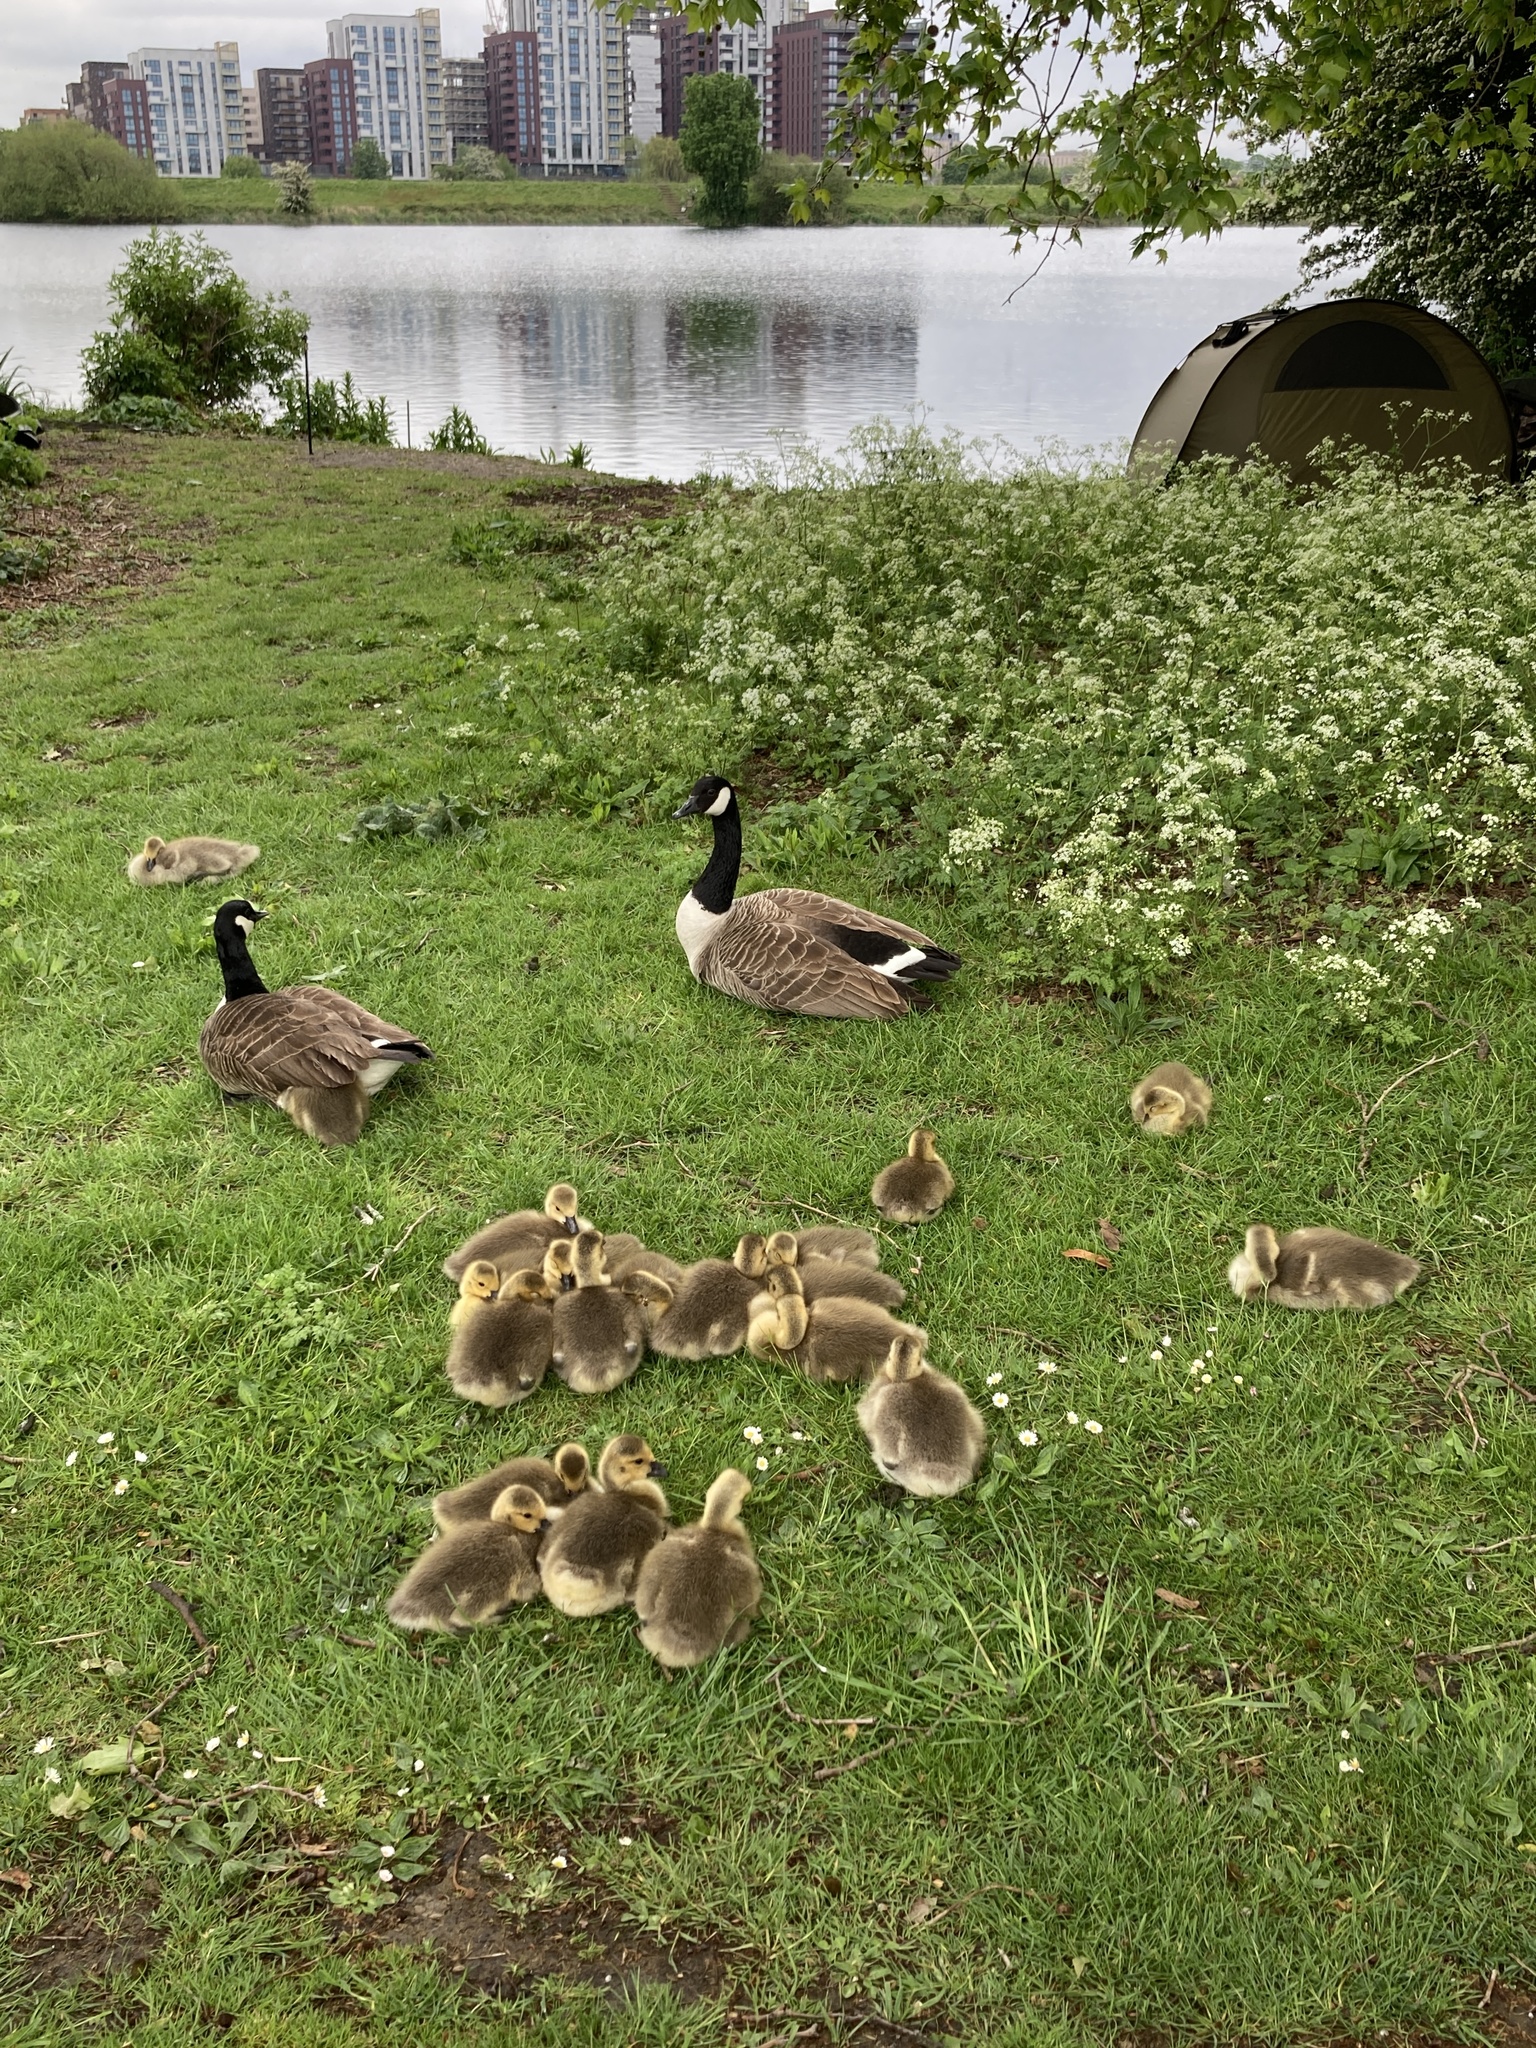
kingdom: Animalia
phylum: Chordata
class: Aves
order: Anseriformes
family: Anatidae
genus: Branta
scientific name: Branta canadensis
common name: Canada goose
